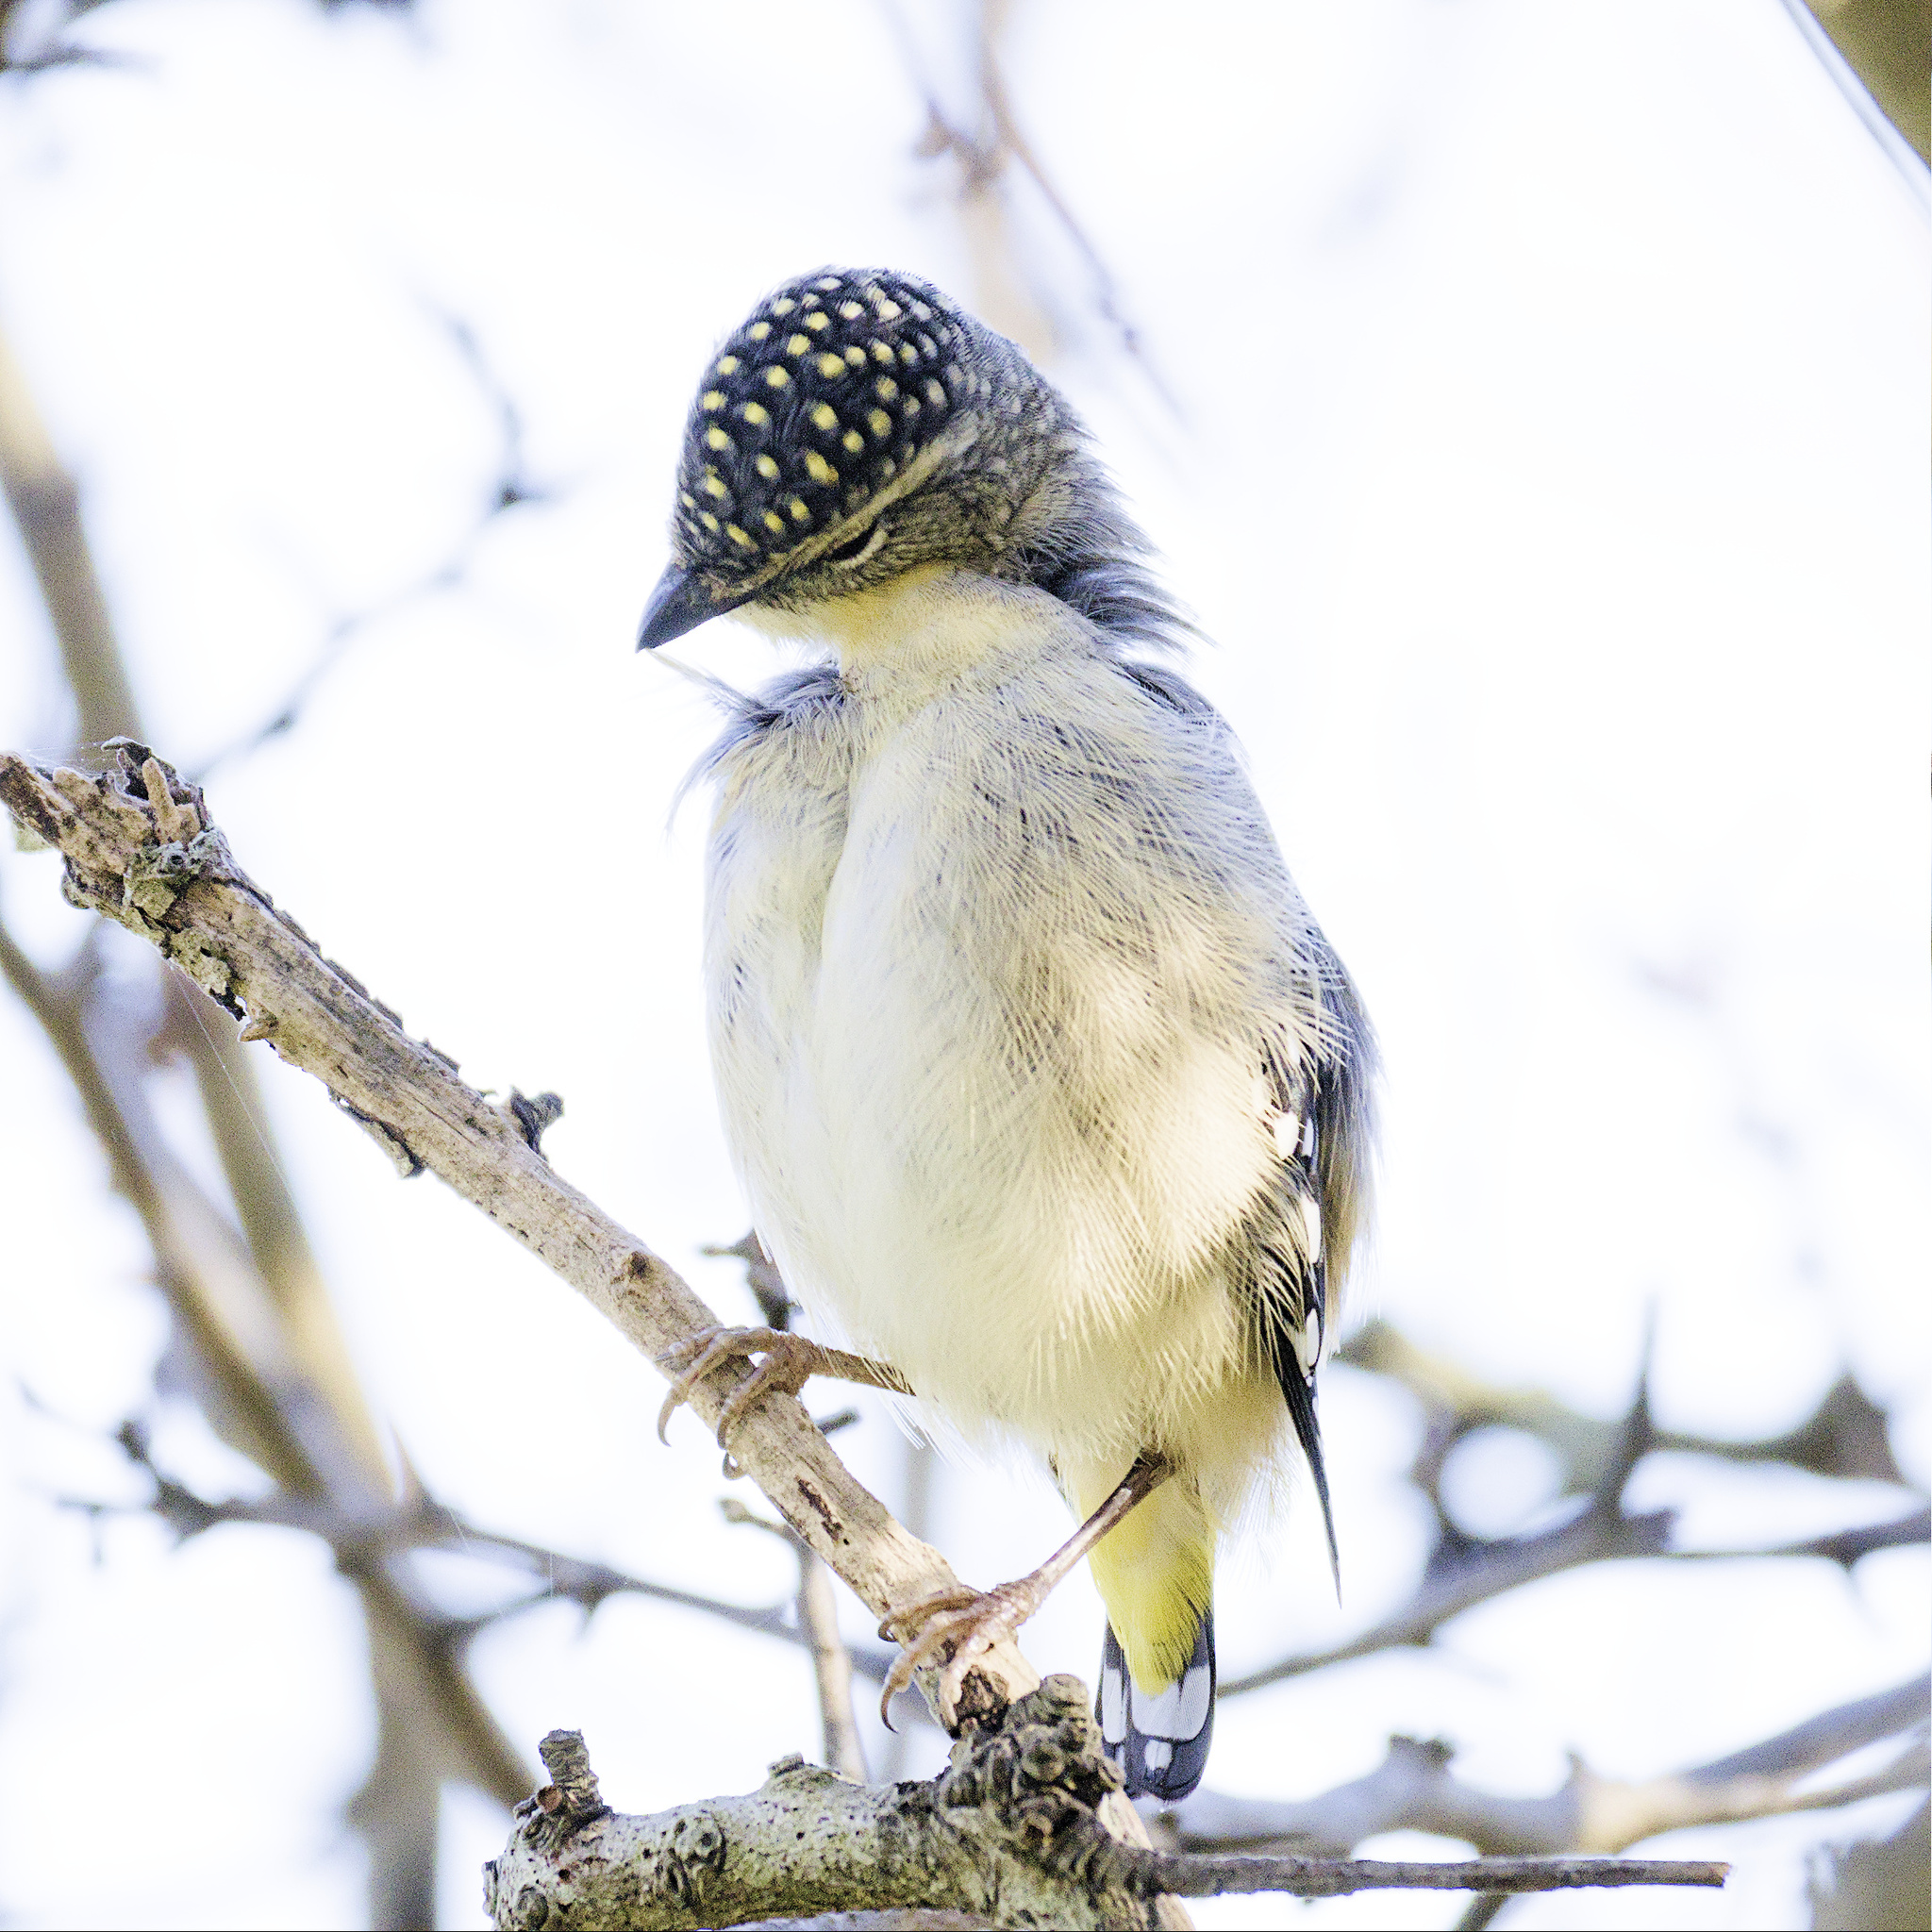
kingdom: Animalia
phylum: Chordata
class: Aves
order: Passeriformes
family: Pardalotidae
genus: Pardalotus
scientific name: Pardalotus punctatus
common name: Spotted pardalote
